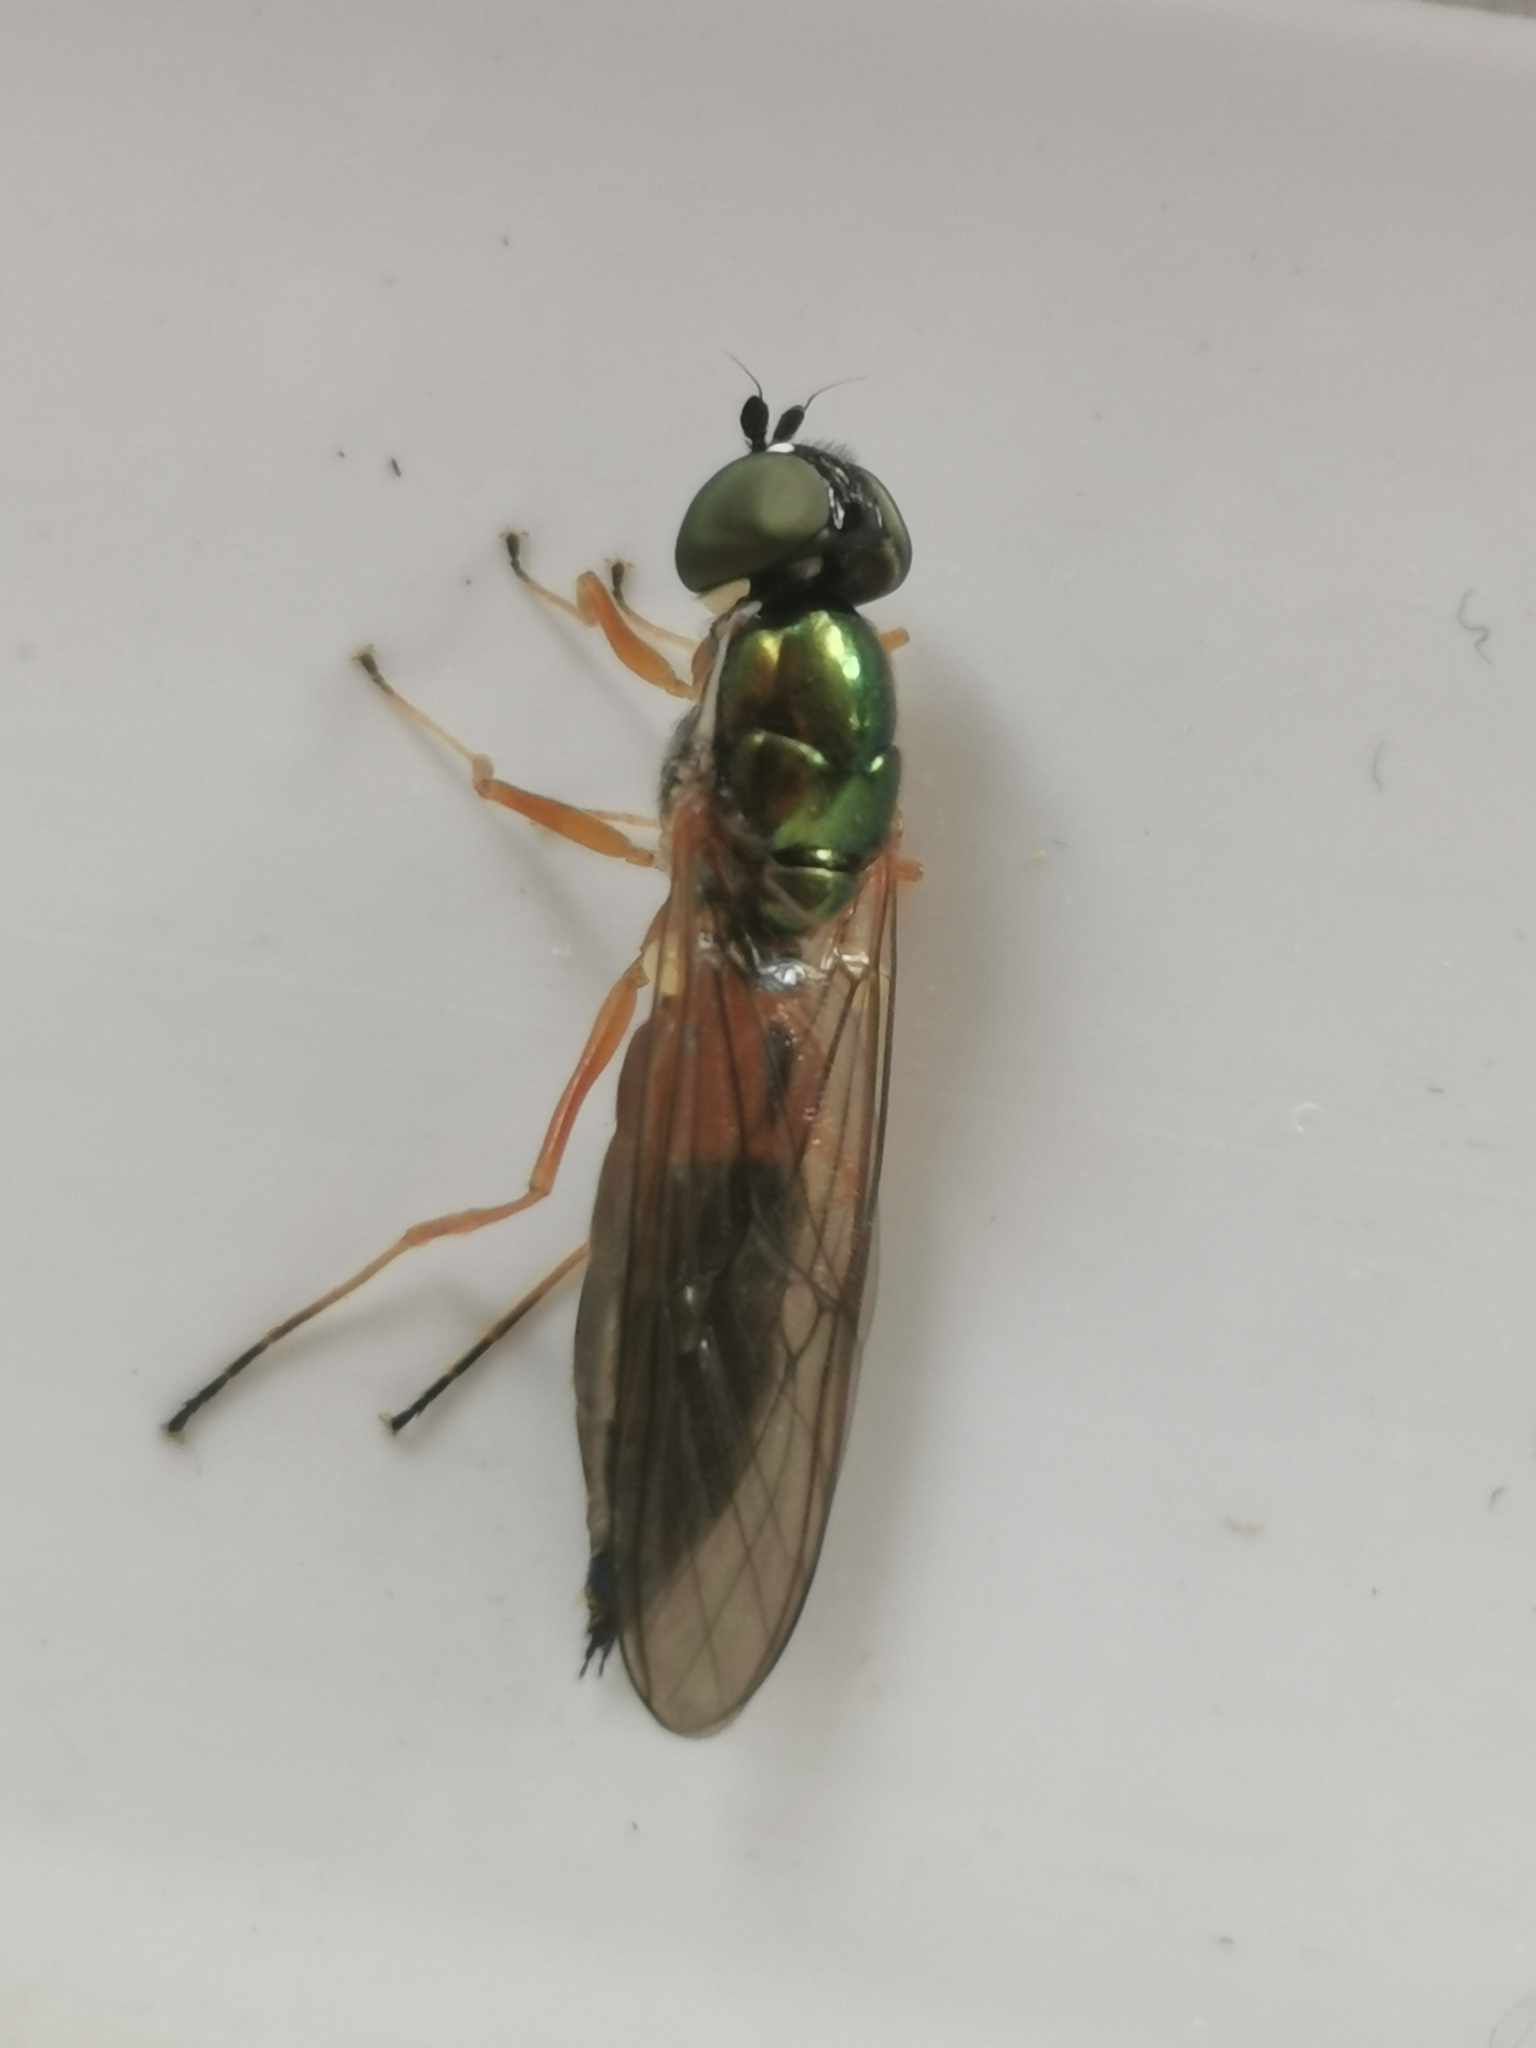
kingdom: Animalia
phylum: Arthropoda
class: Insecta
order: Diptera
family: Stratiomyidae
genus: Sargus
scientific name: Sargus bipunctatus
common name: Twin-spot centurion
